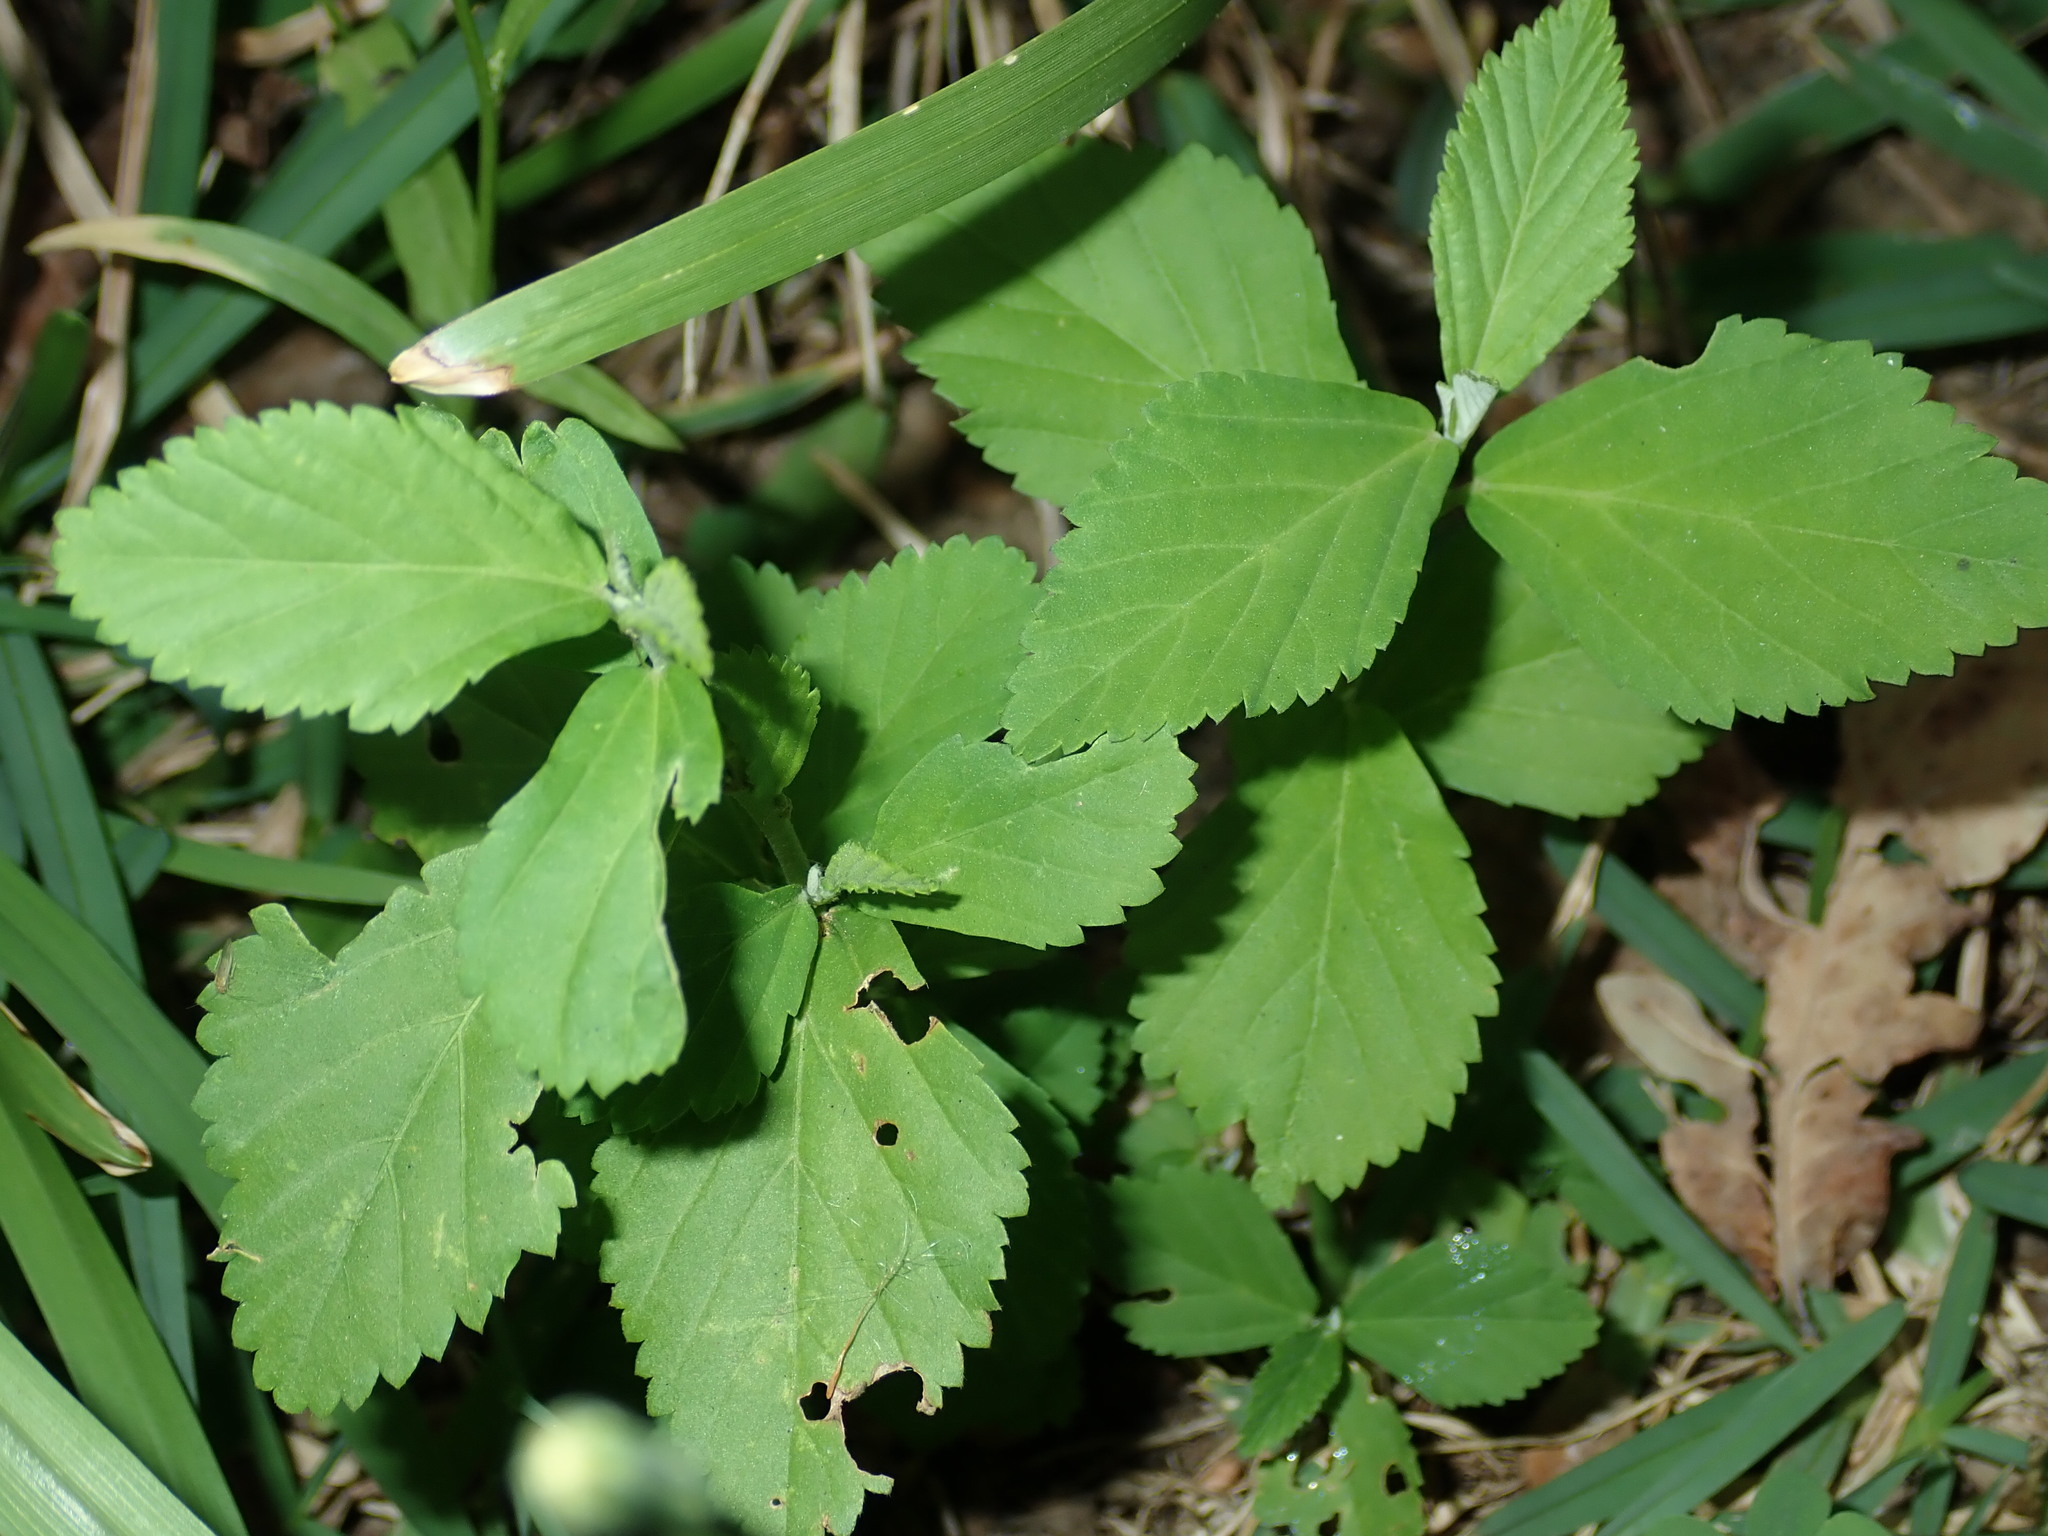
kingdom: Plantae
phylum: Tracheophyta
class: Magnoliopsida
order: Malvales
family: Malvaceae
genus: Sida
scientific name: Sida rhombifolia
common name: Queensland-hemp
